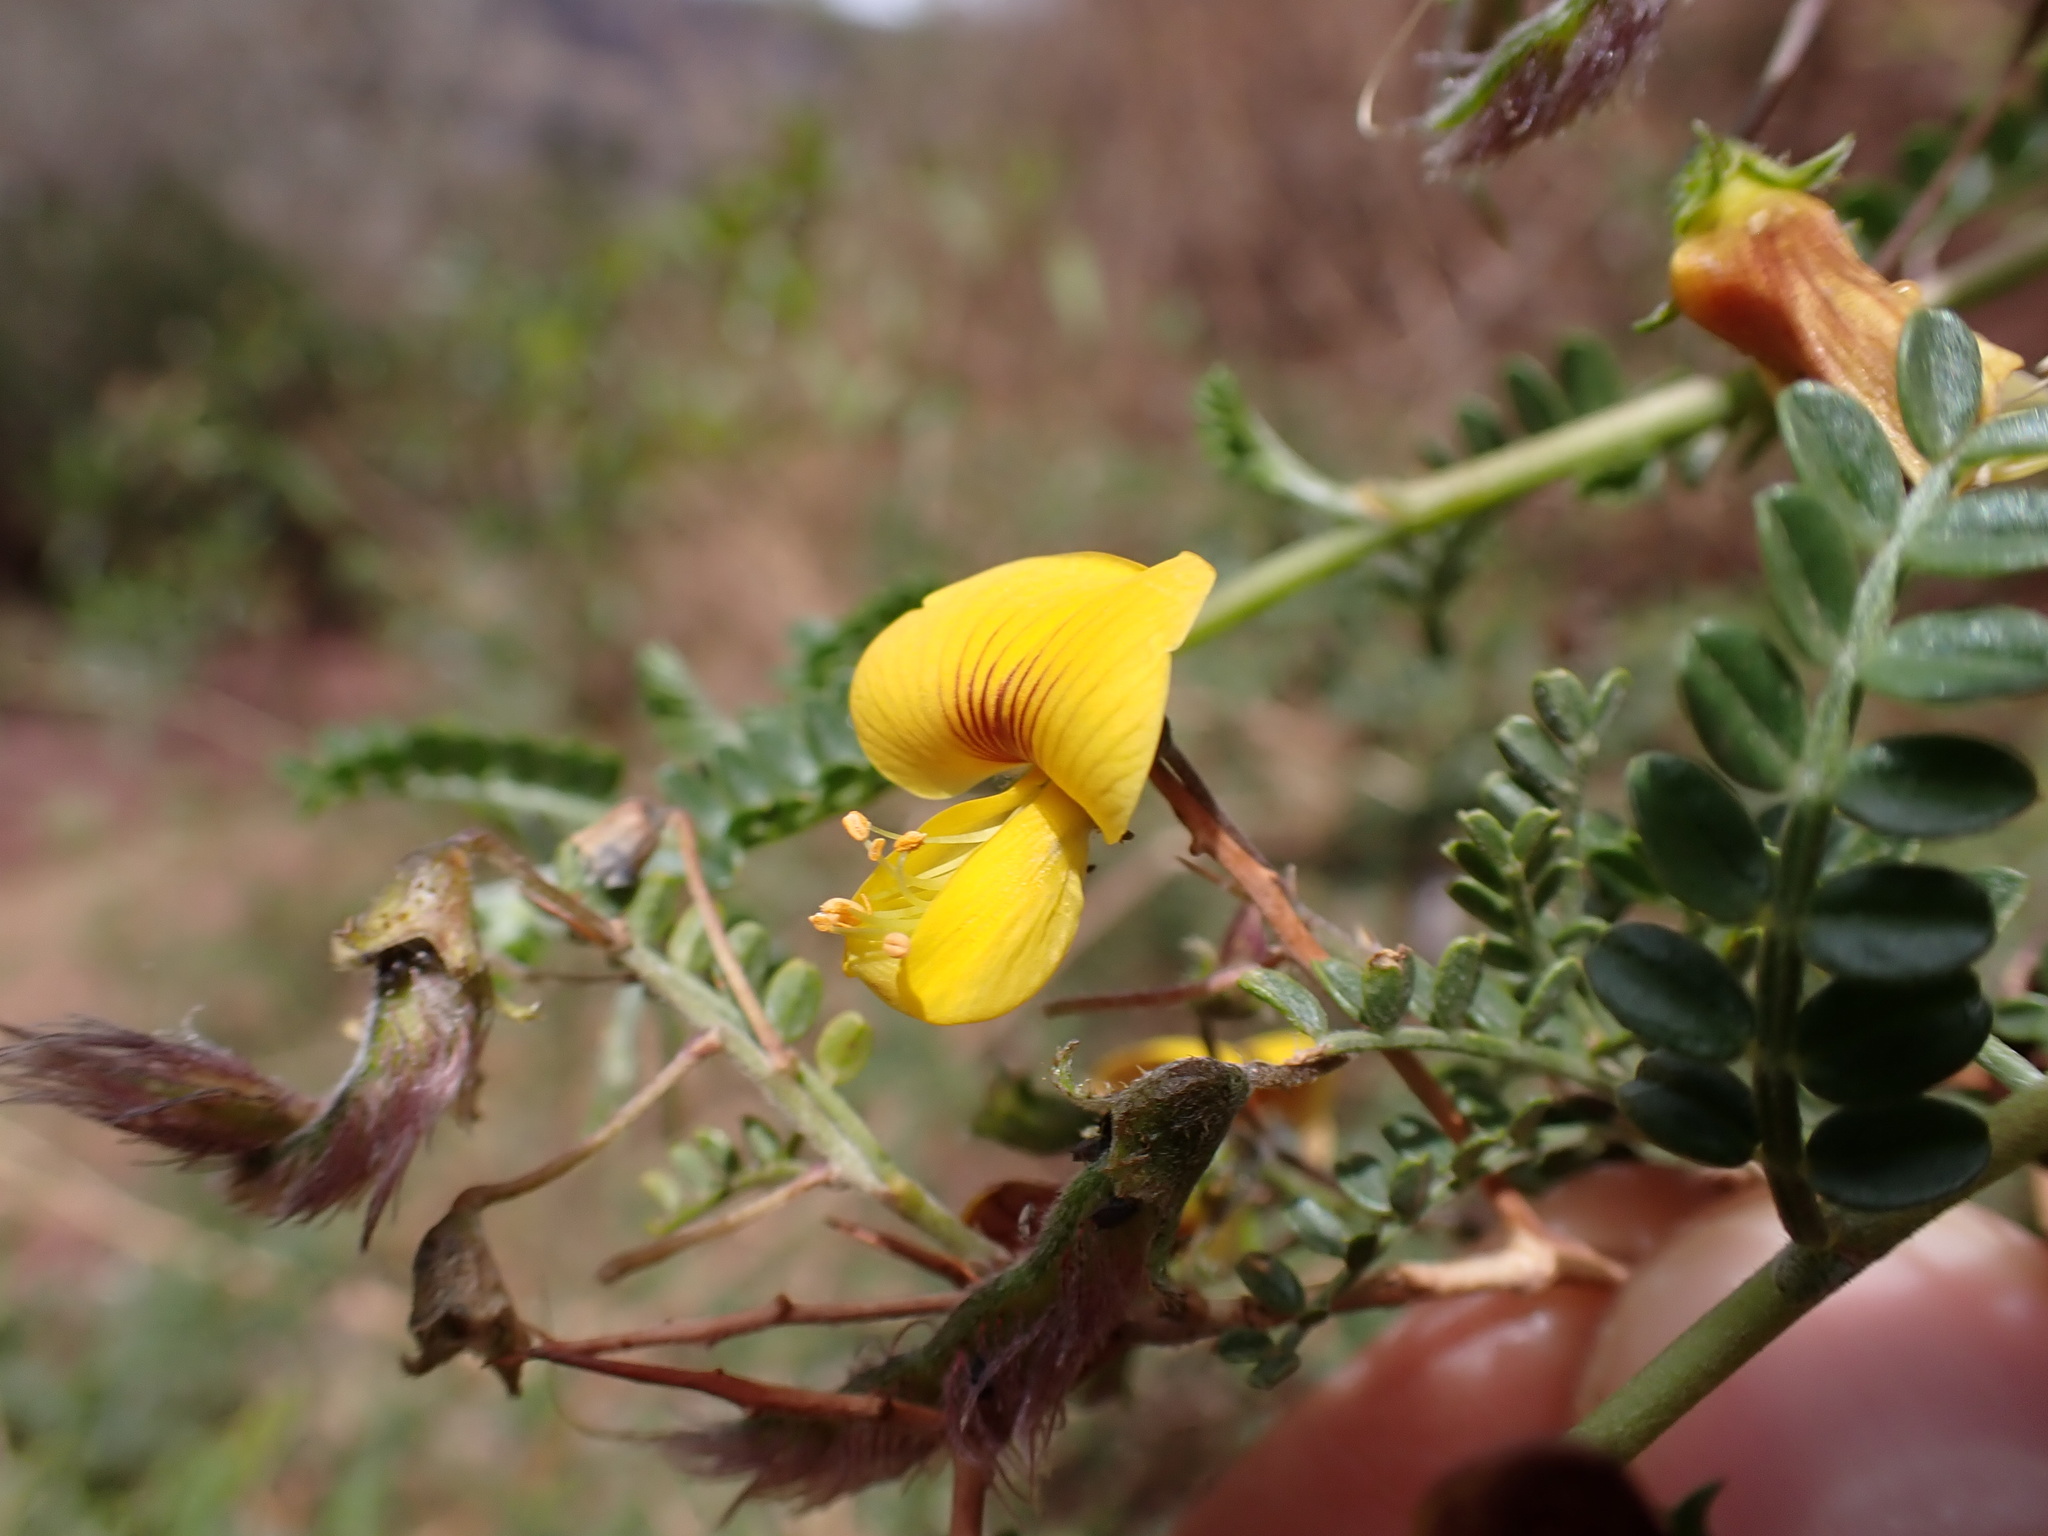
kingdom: Plantae
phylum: Tracheophyta
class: Magnoliopsida
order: Fabales
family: Fabaceae
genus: Adesmia
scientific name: Adesmia miraflorensis
